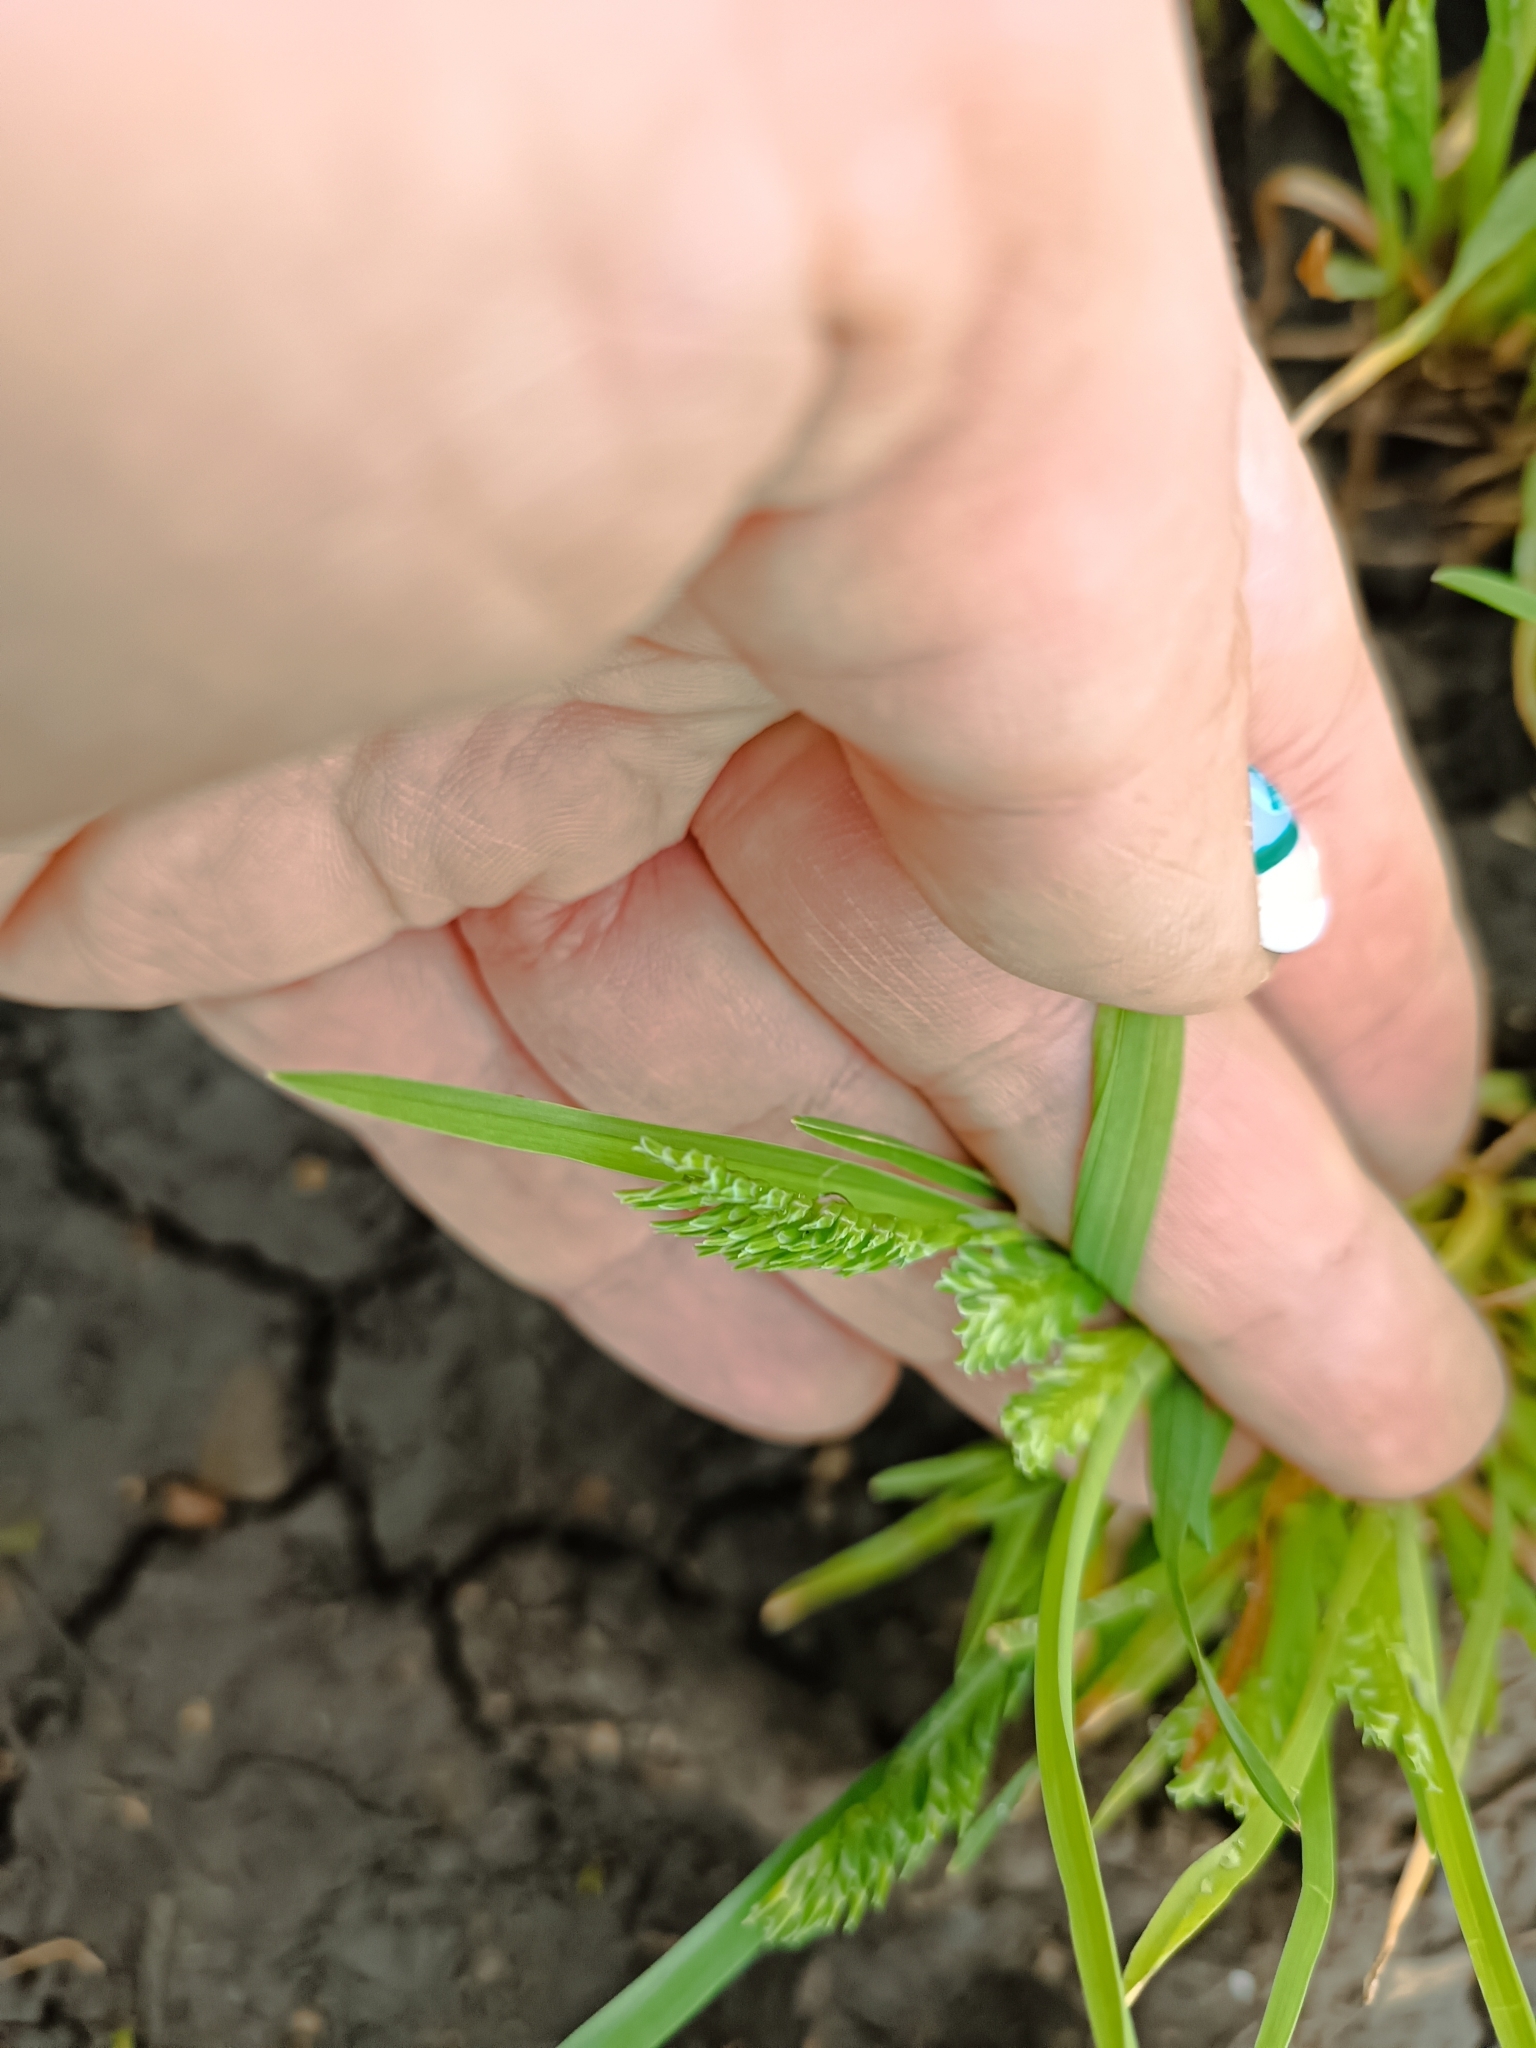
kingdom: Plantae
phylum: Tracheophyta
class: Liliopsida
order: Poales
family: Poaceae
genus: Sclerochloa
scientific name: Sclerochloa dura
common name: Common hardgrass
